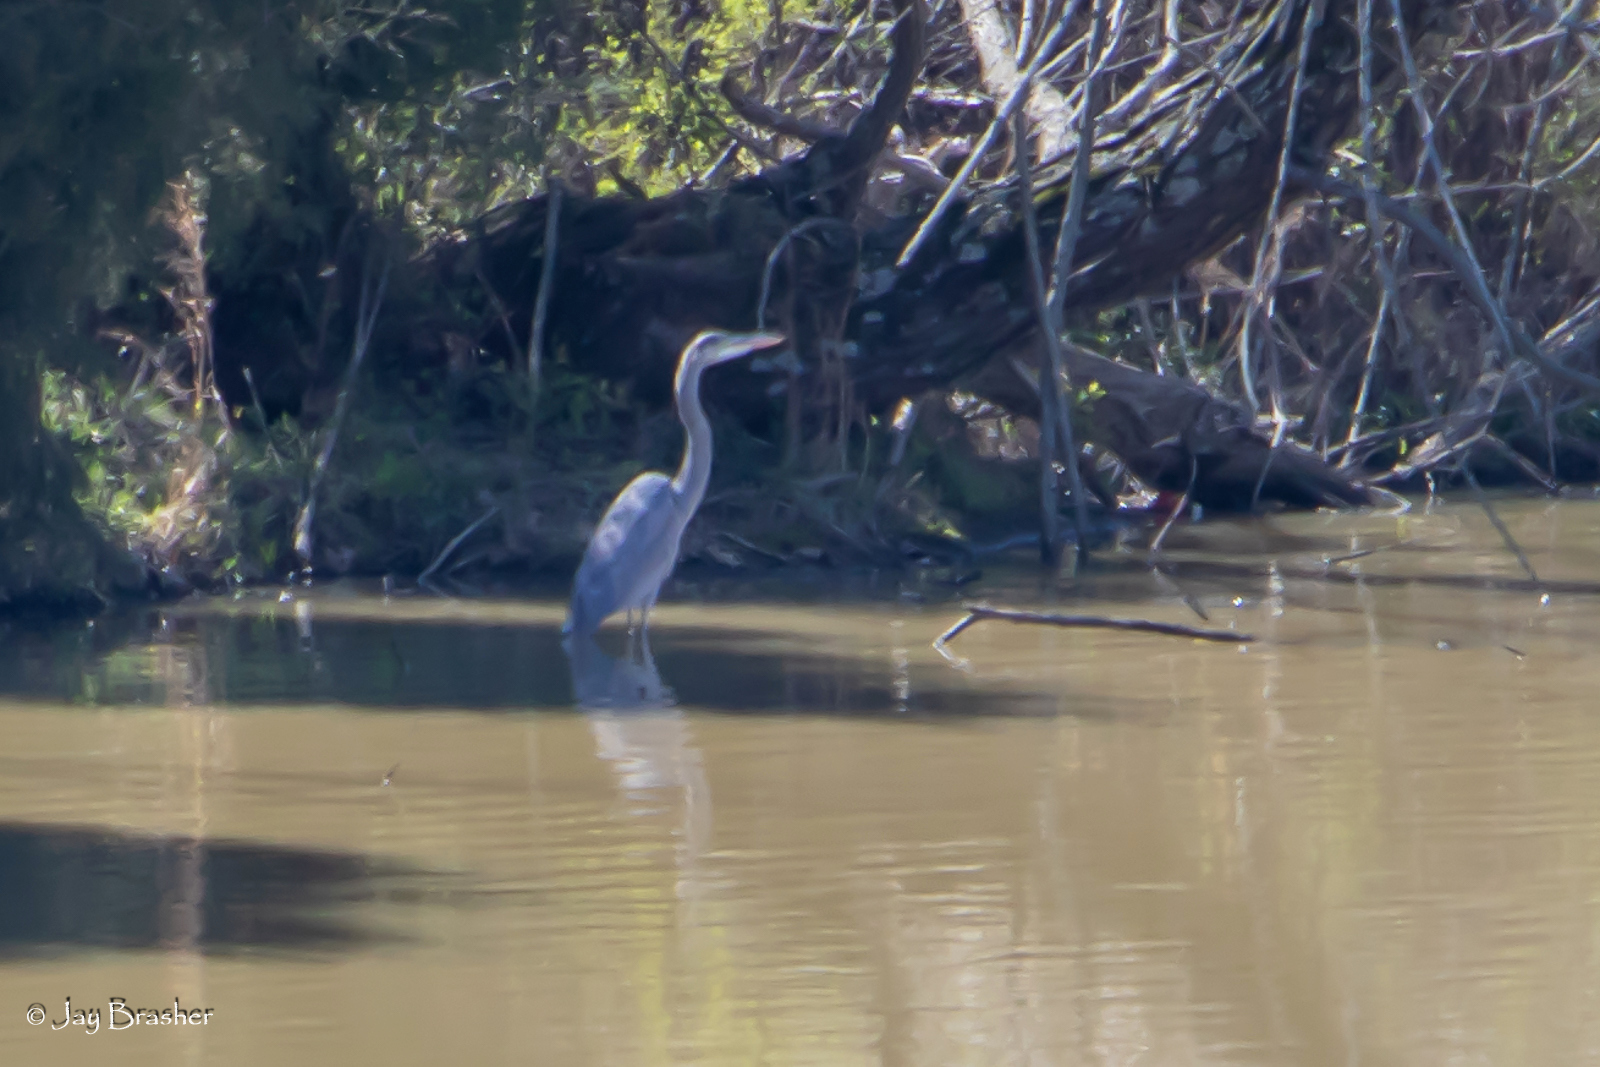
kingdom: Animalia
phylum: Chordata
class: Aves
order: Pelecaniformes
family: Ardeidae
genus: Ardea
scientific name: Ardea herodias
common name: Great blue heron
